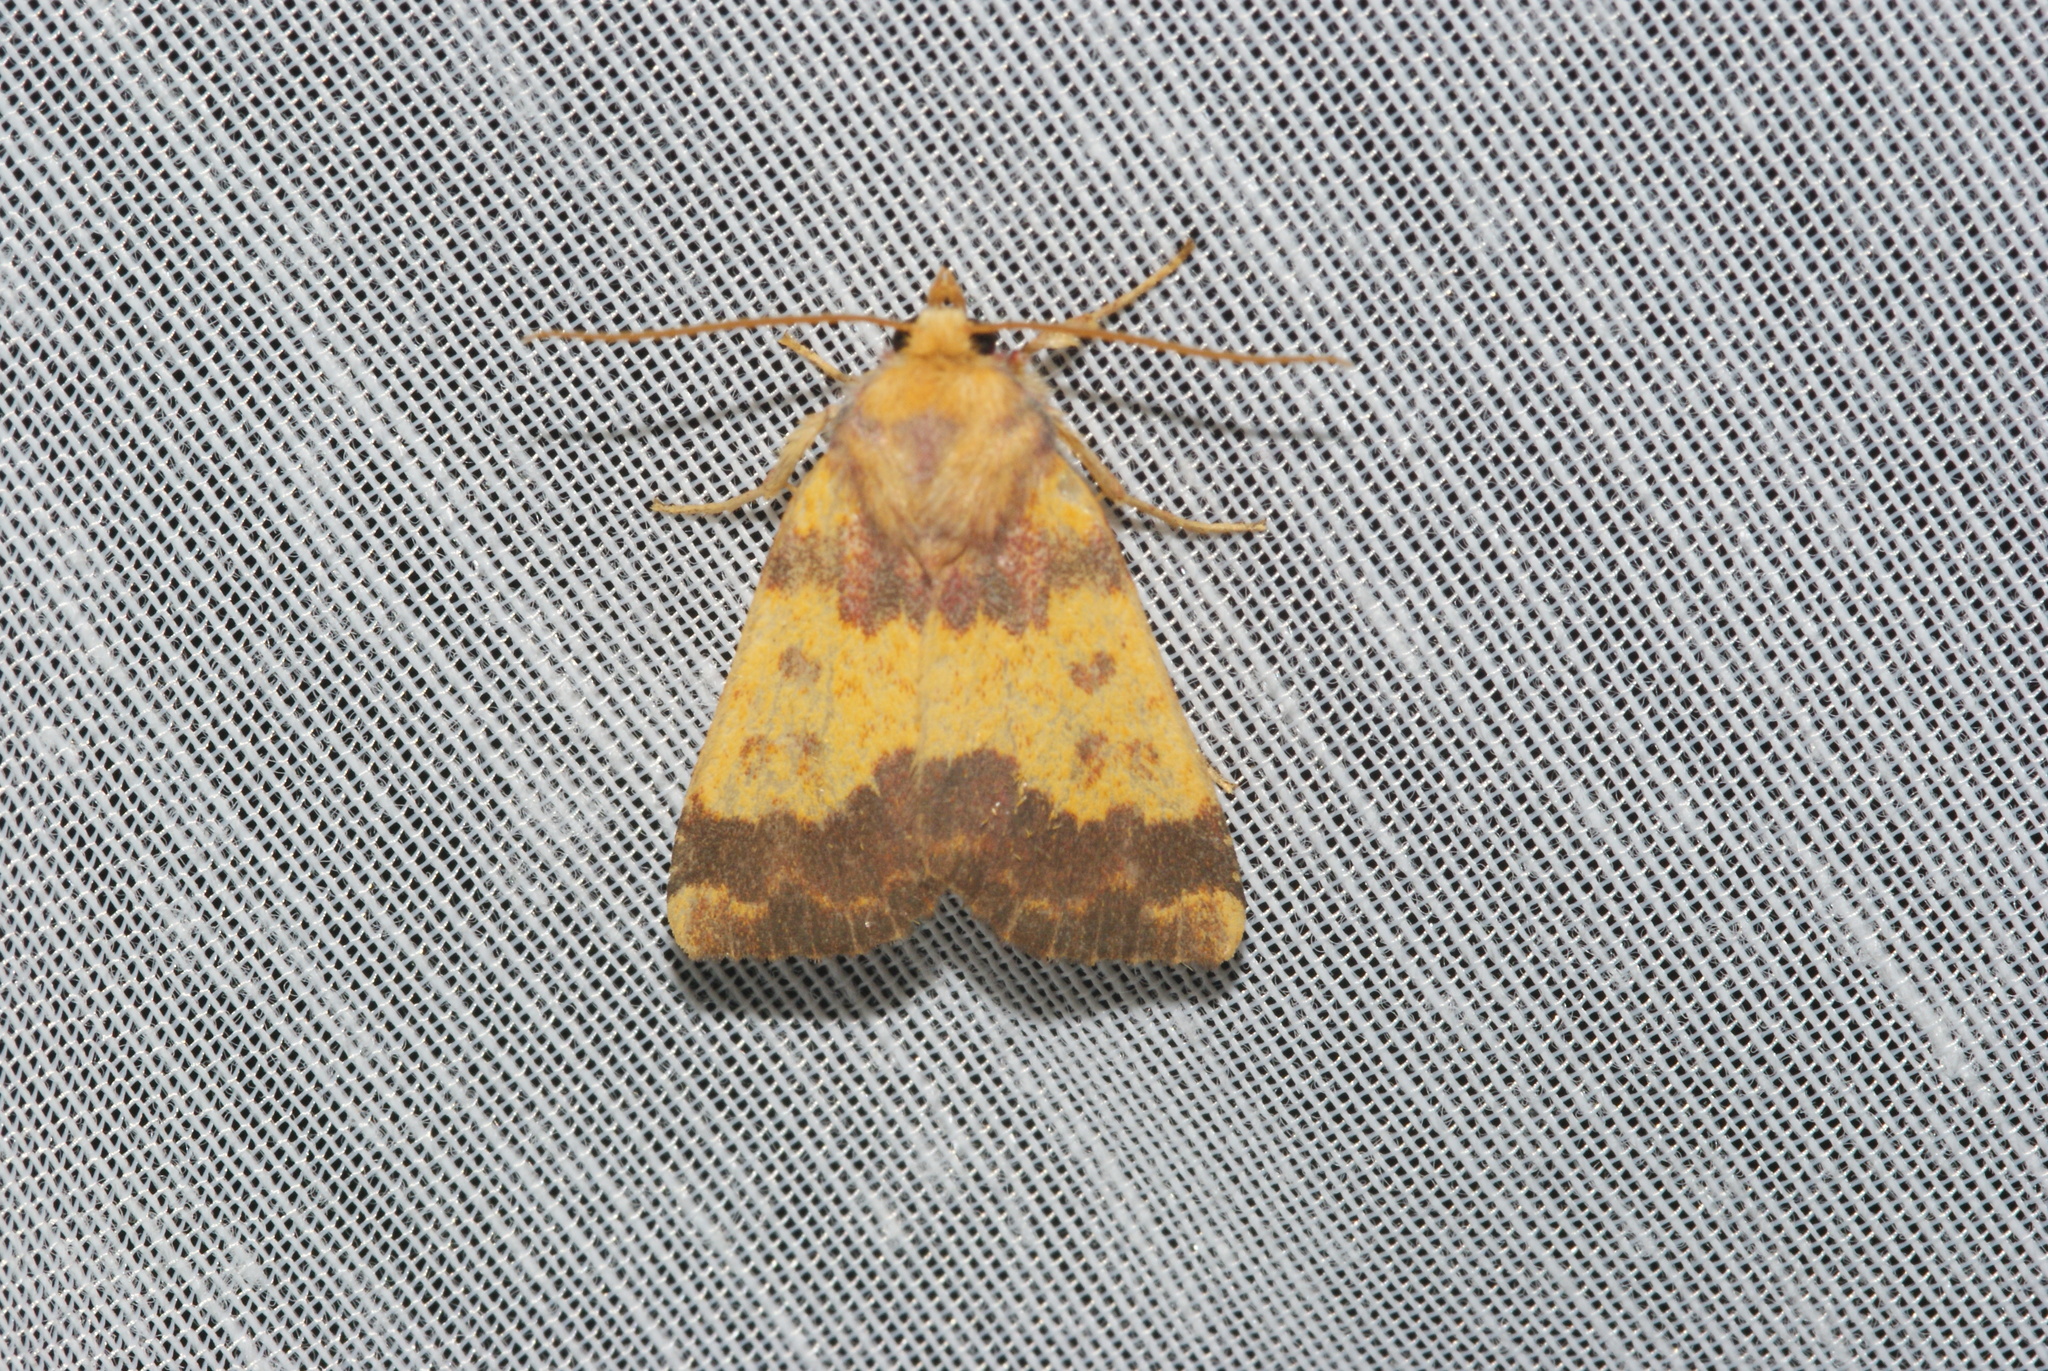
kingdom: Animalia
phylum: Arthropoda
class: Insecta
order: Lepidoptera
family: Noctuidae
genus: Tiliacea
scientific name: Tiliacea aurago
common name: Barred sallow
